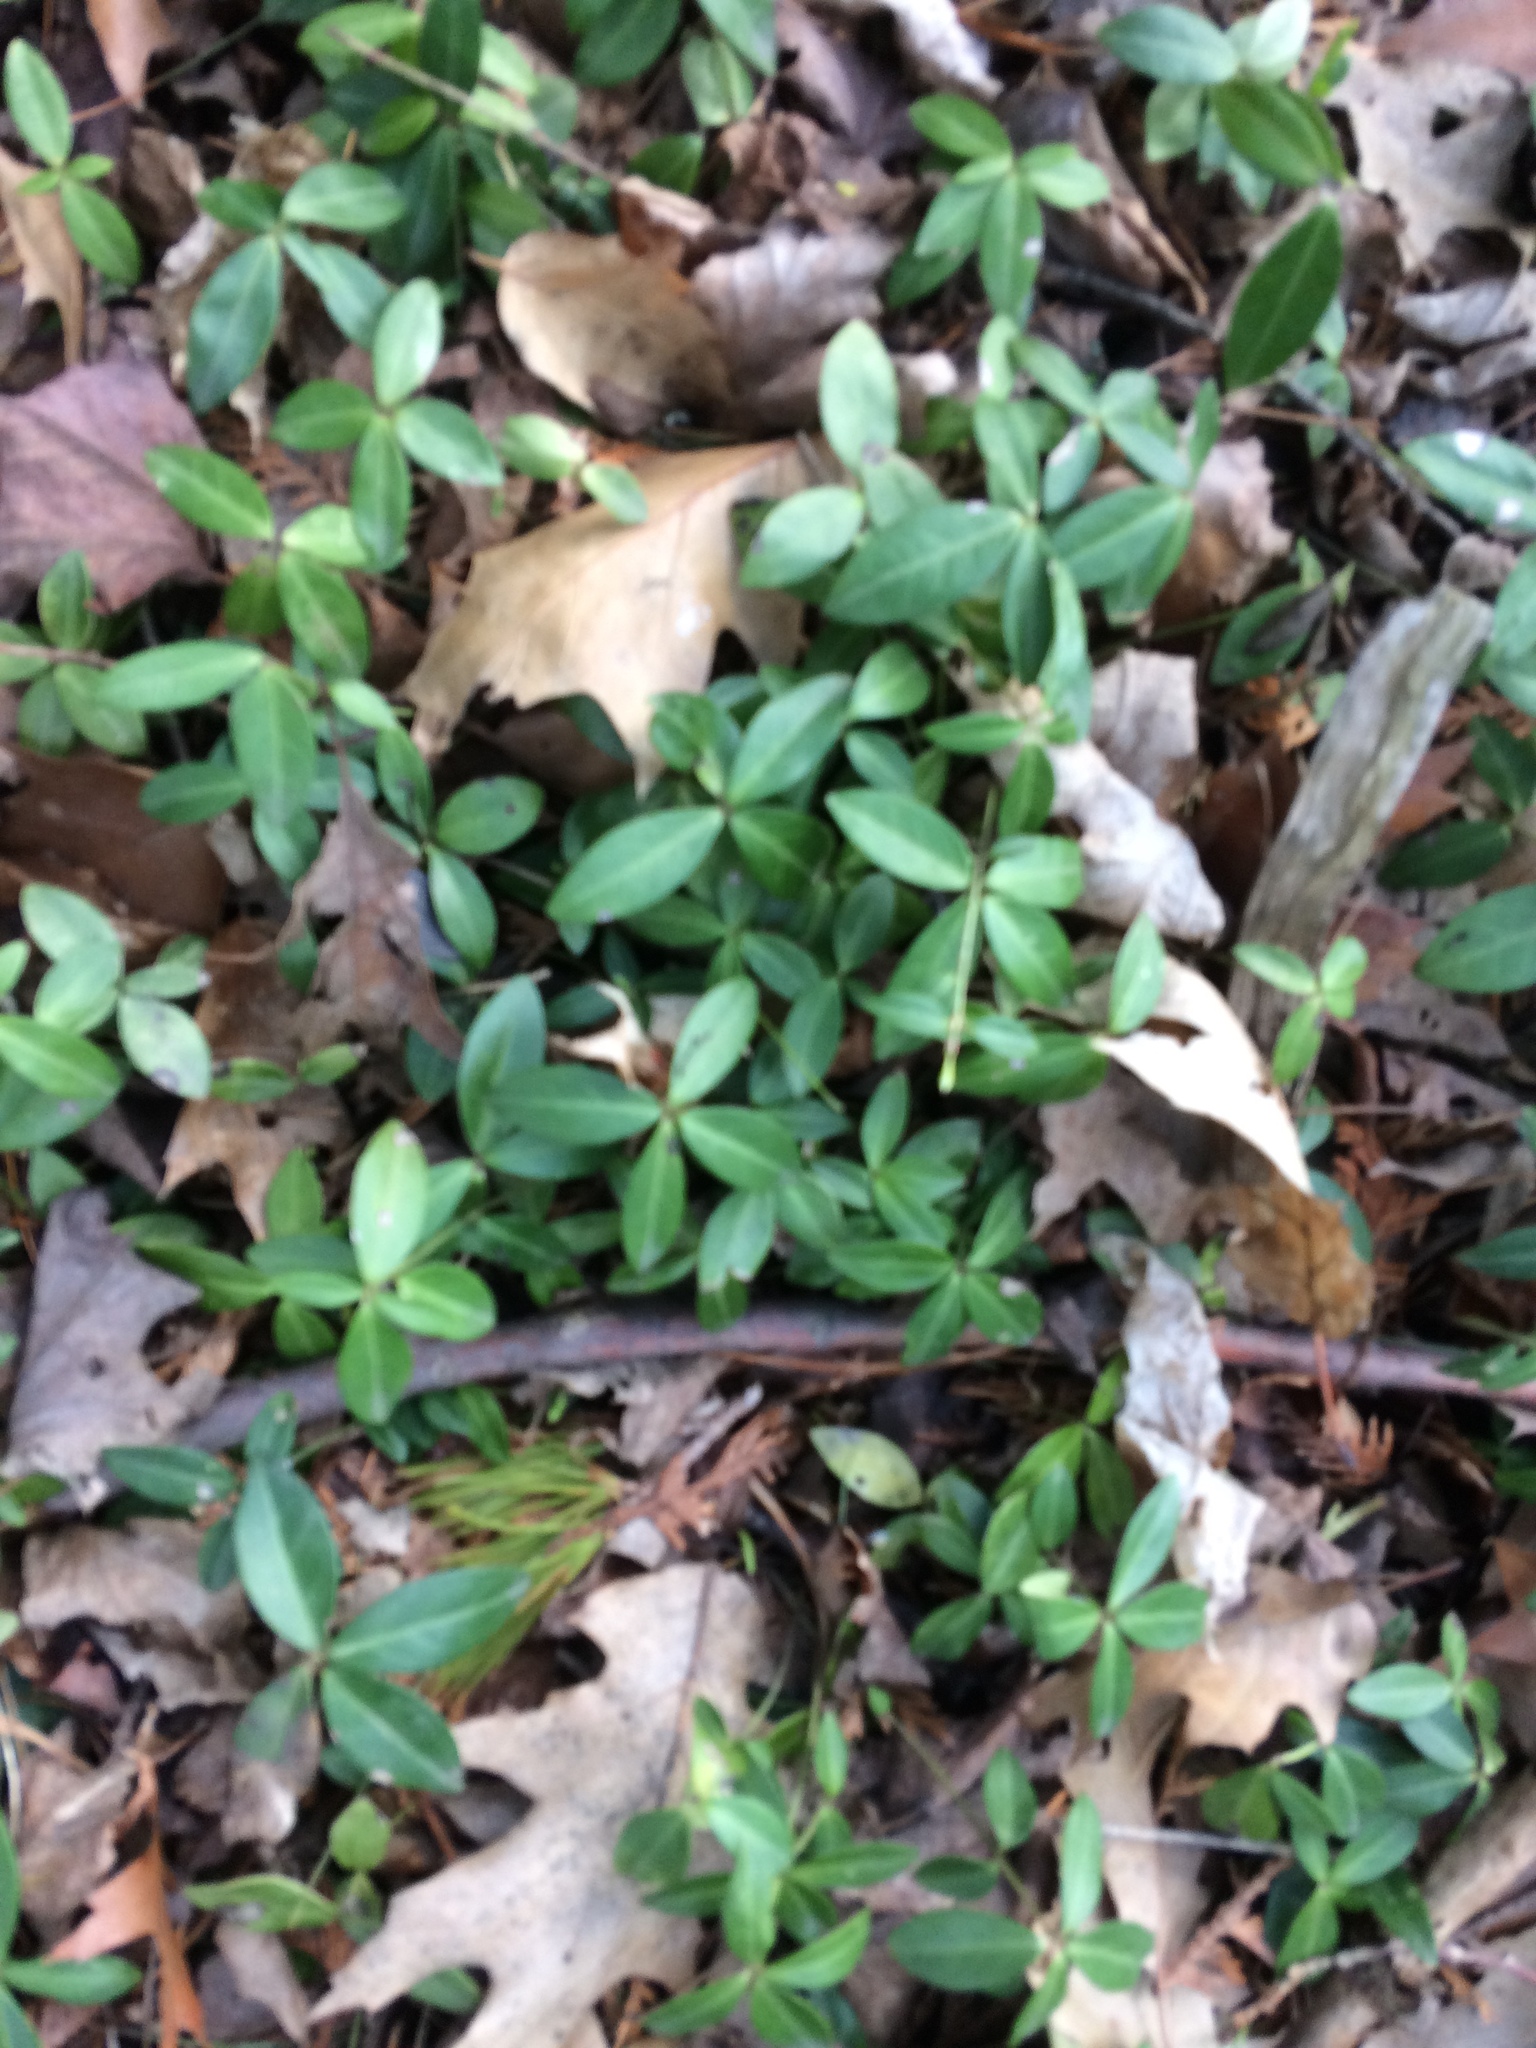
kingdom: Plantae
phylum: Tracheophyta
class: Magnoliopsida
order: Gentianales
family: Apocynaceae
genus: Vinca
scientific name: Vinca minor
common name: Lesser periwinkle
